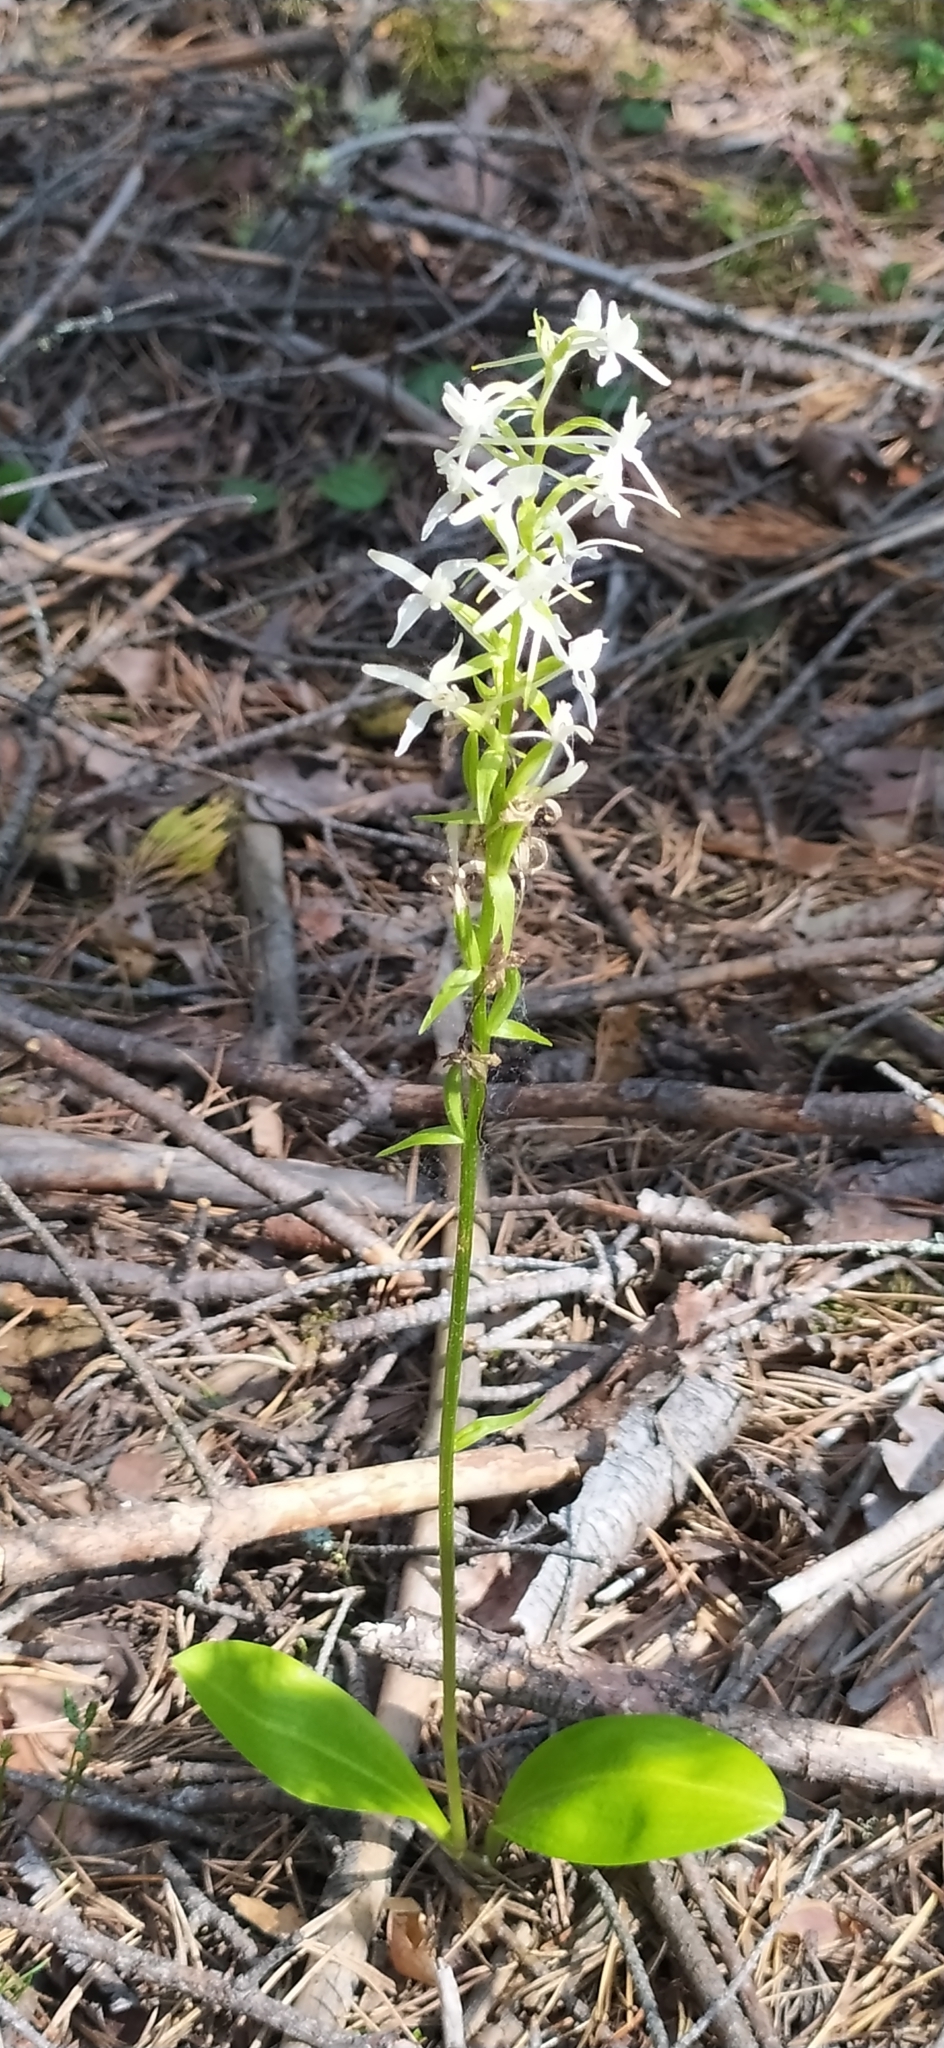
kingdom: Plantae
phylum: Tracheophyta
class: Liliopsida
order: Asparagales
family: Orchidaceae
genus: Platanthera
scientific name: Platanthera bifolia
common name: Lesser butterfly-orchid
